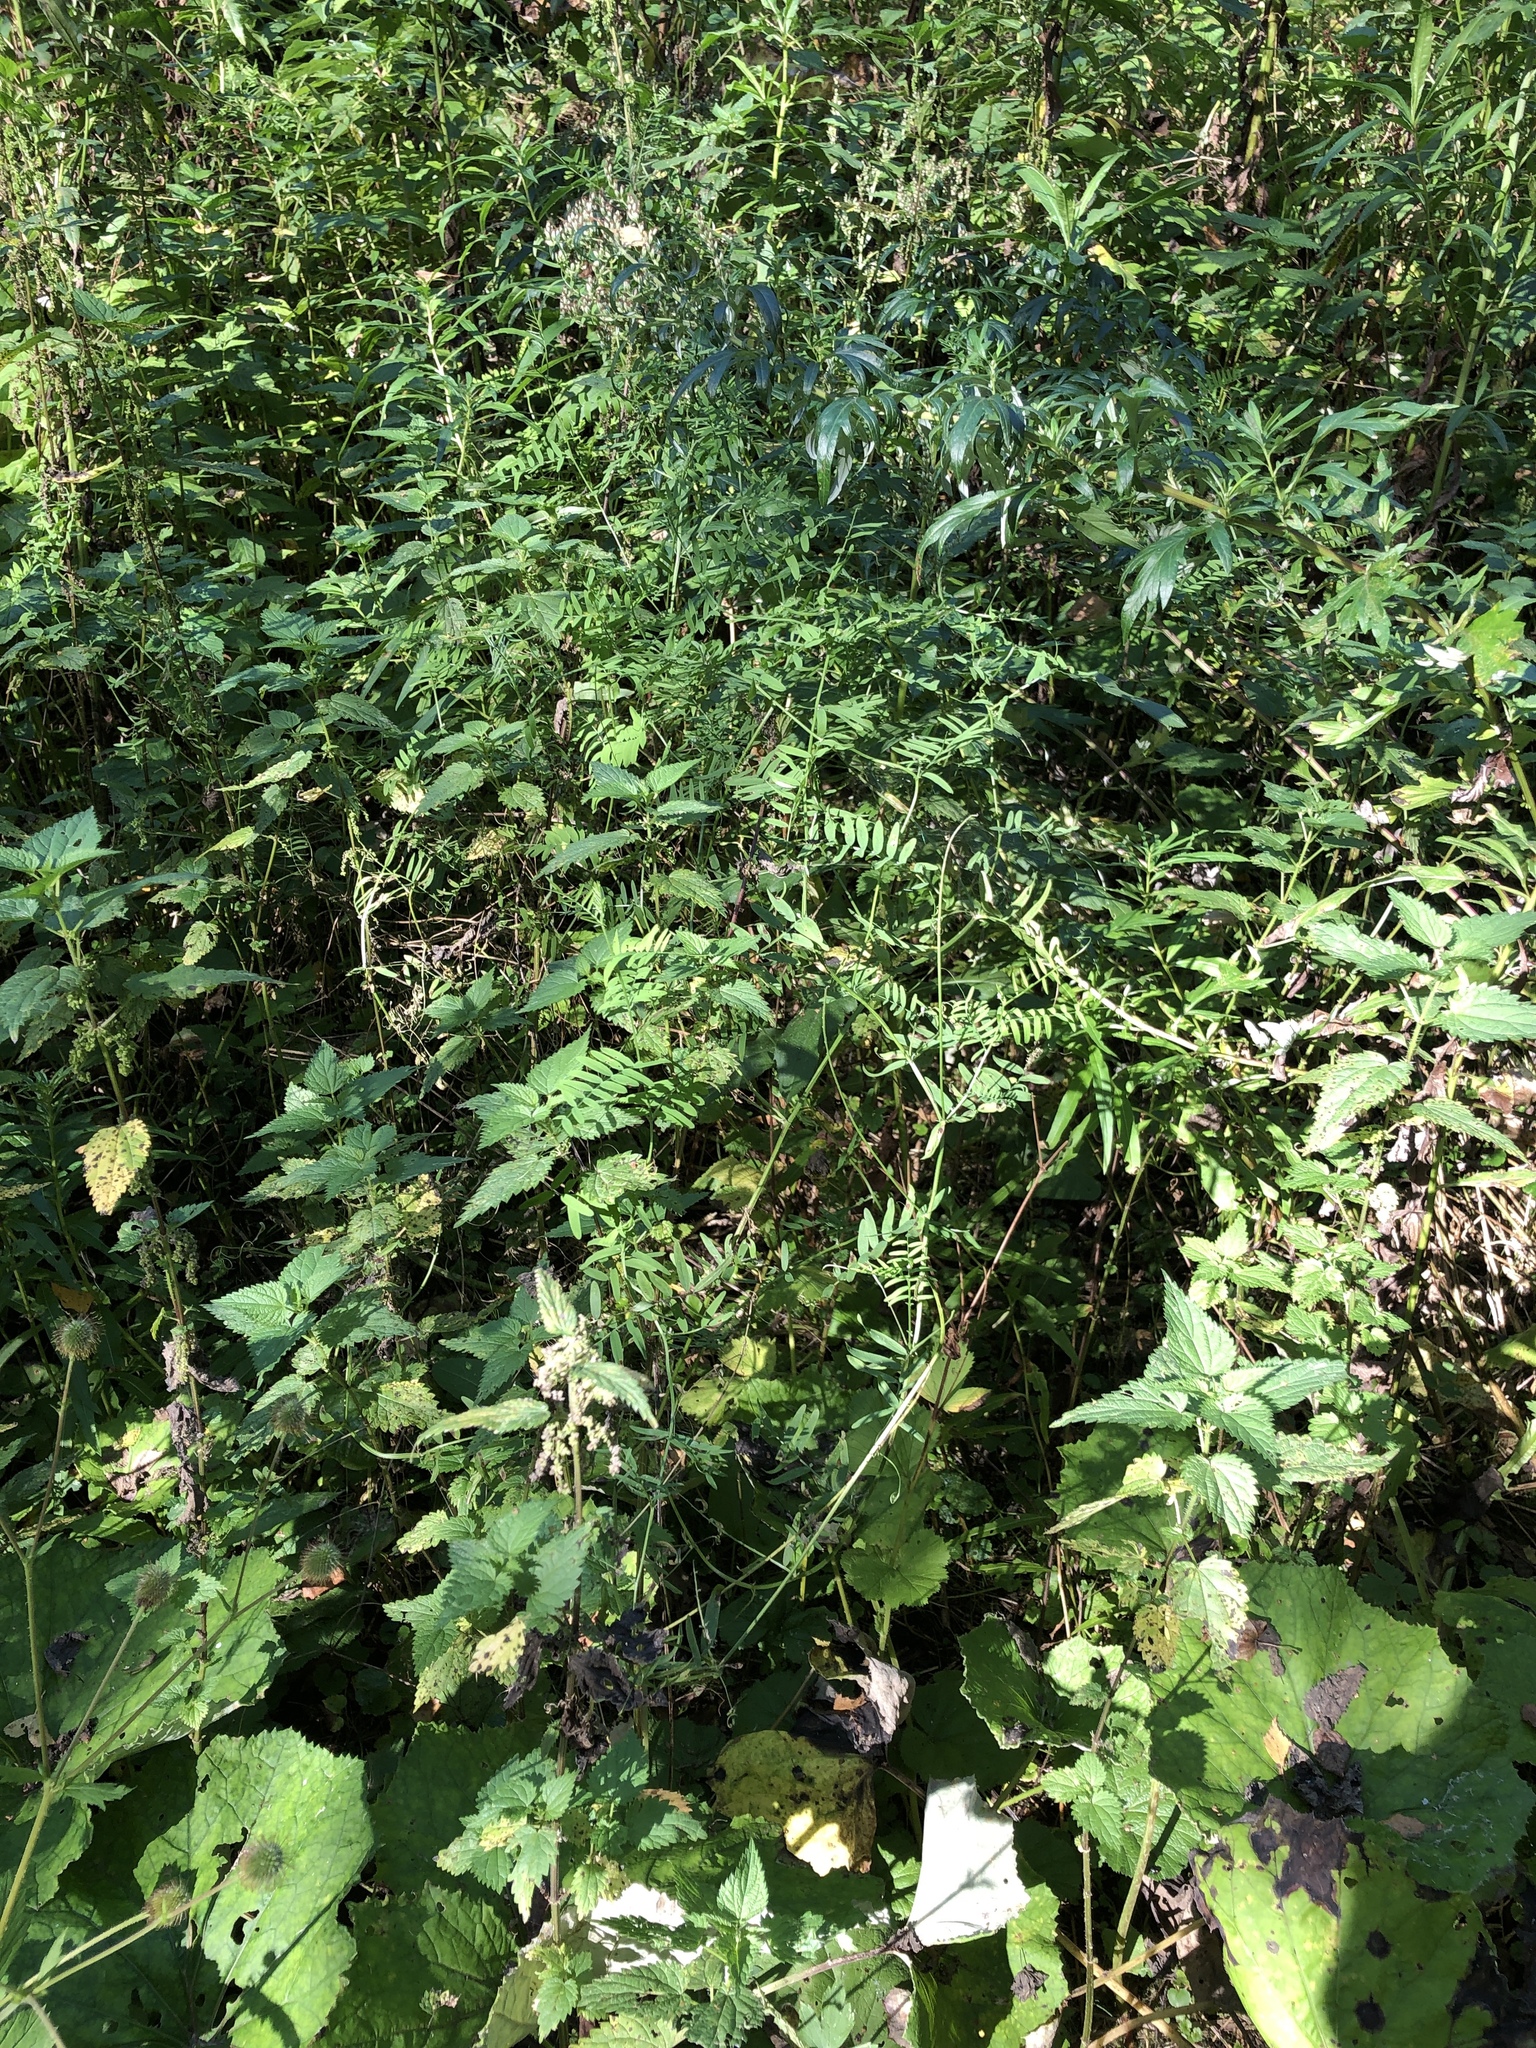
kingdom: Plantae
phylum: Tracheophyta
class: Magnoliopsida
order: Fabales
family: Fabaceae
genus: Vicia
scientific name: Vicia cracca
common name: Bird vetch
